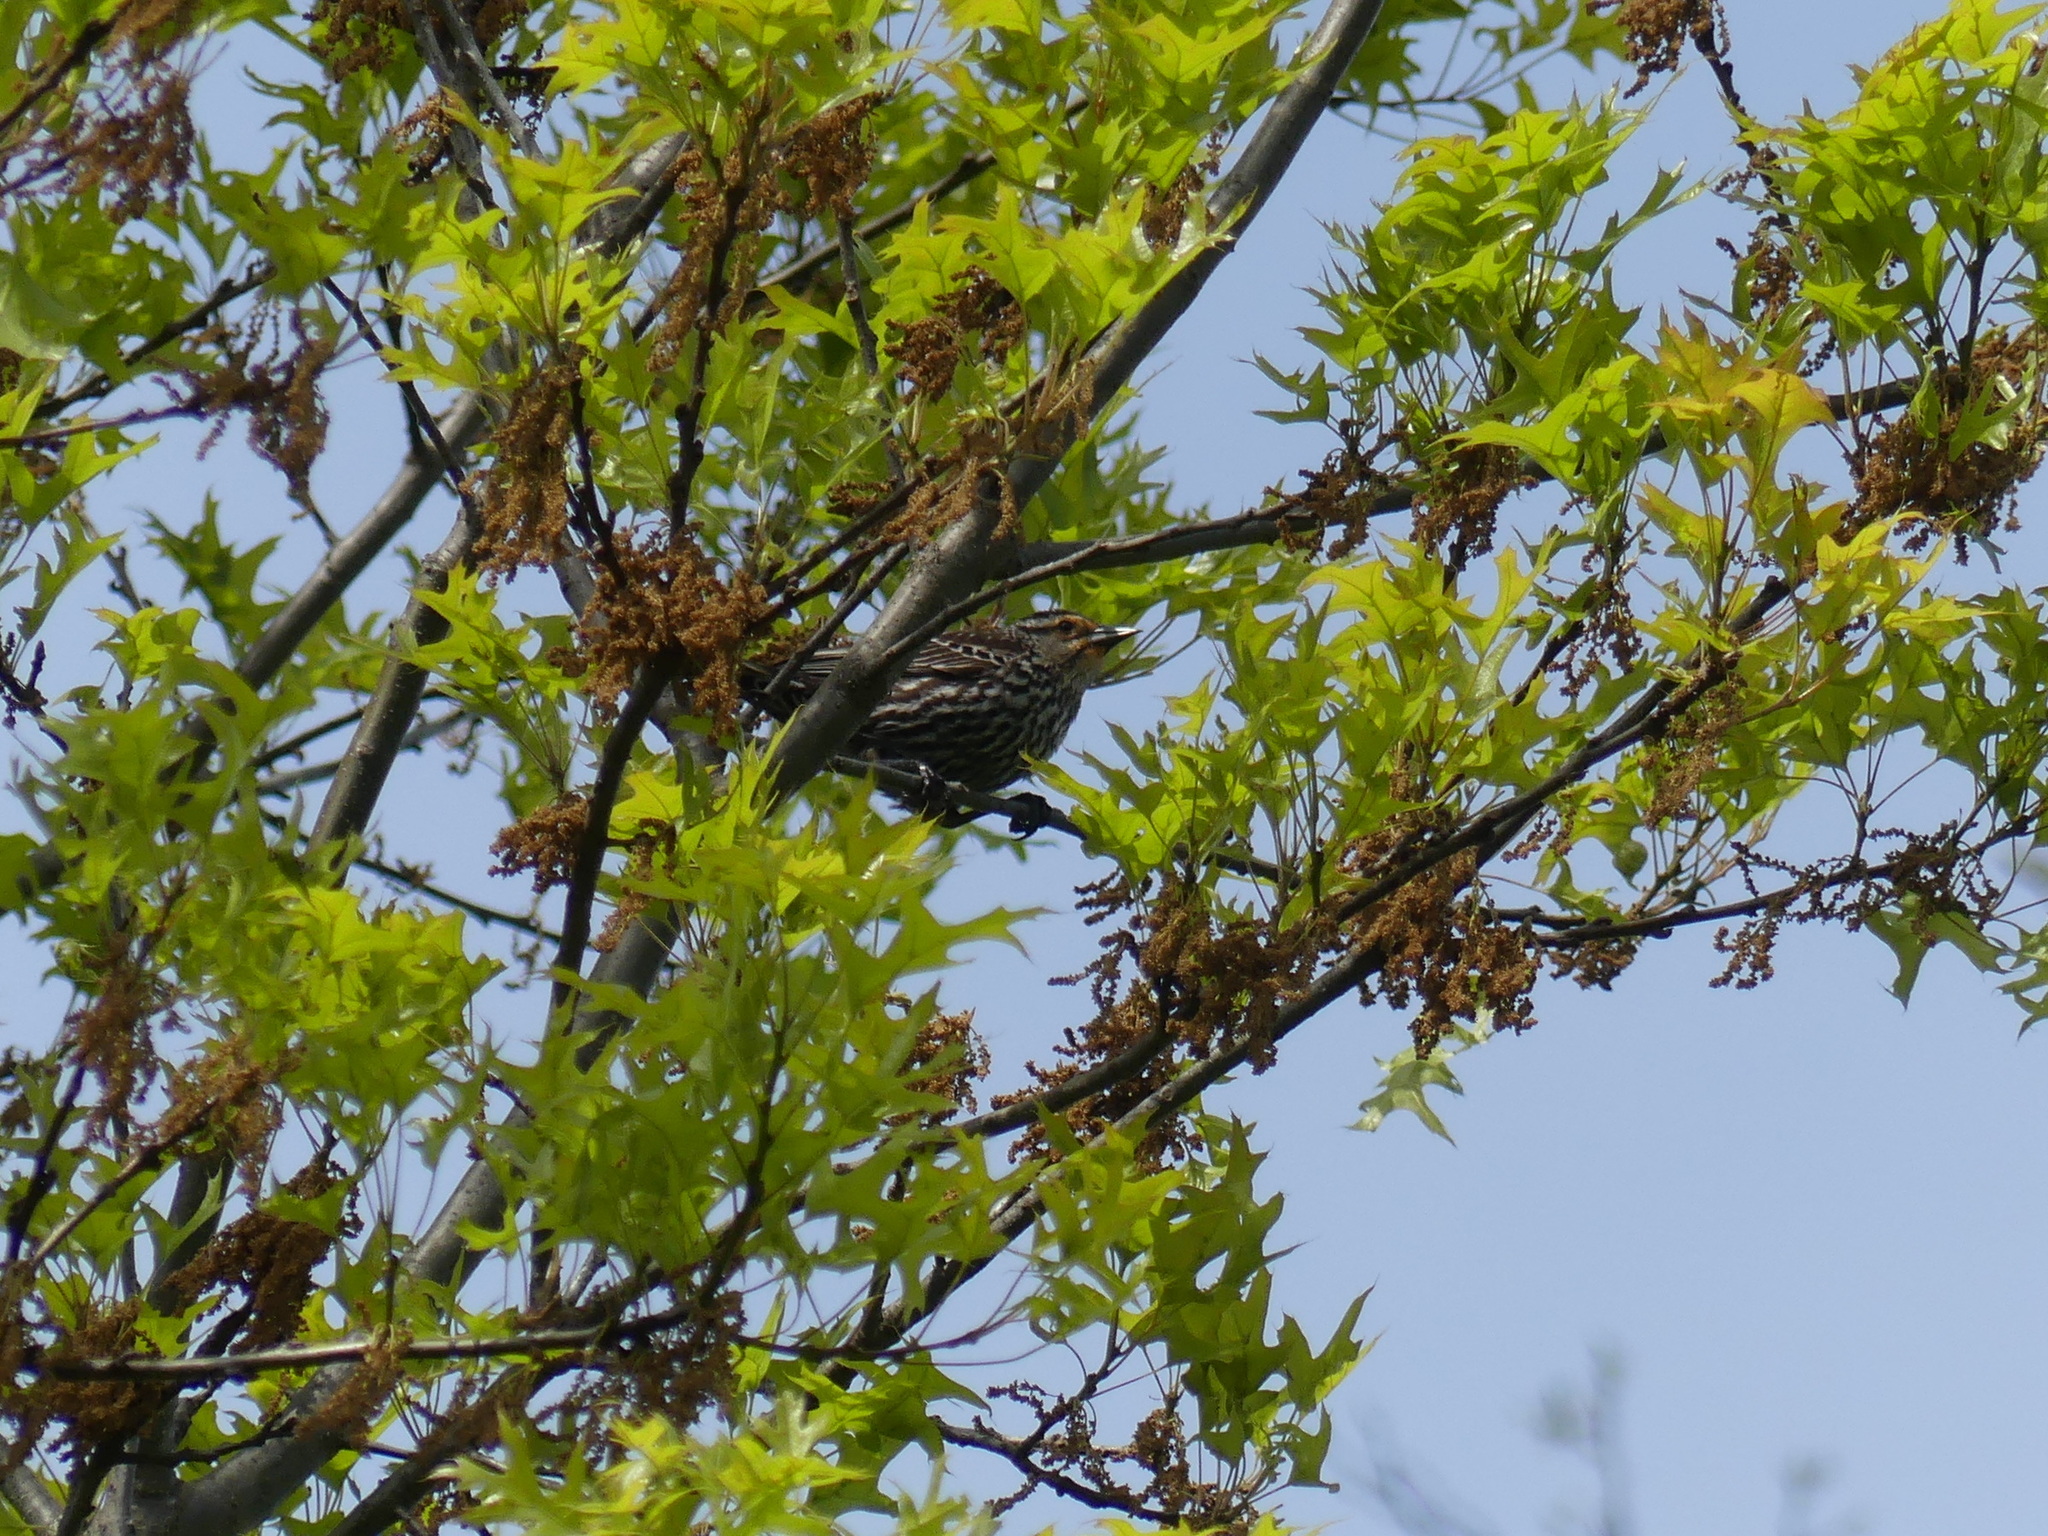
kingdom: Animalia
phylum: Chordata
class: Aves
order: Passeriformes
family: Icteridae
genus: Agelaius
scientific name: Agelaius phoeniceus
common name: Red-winged blackbird
